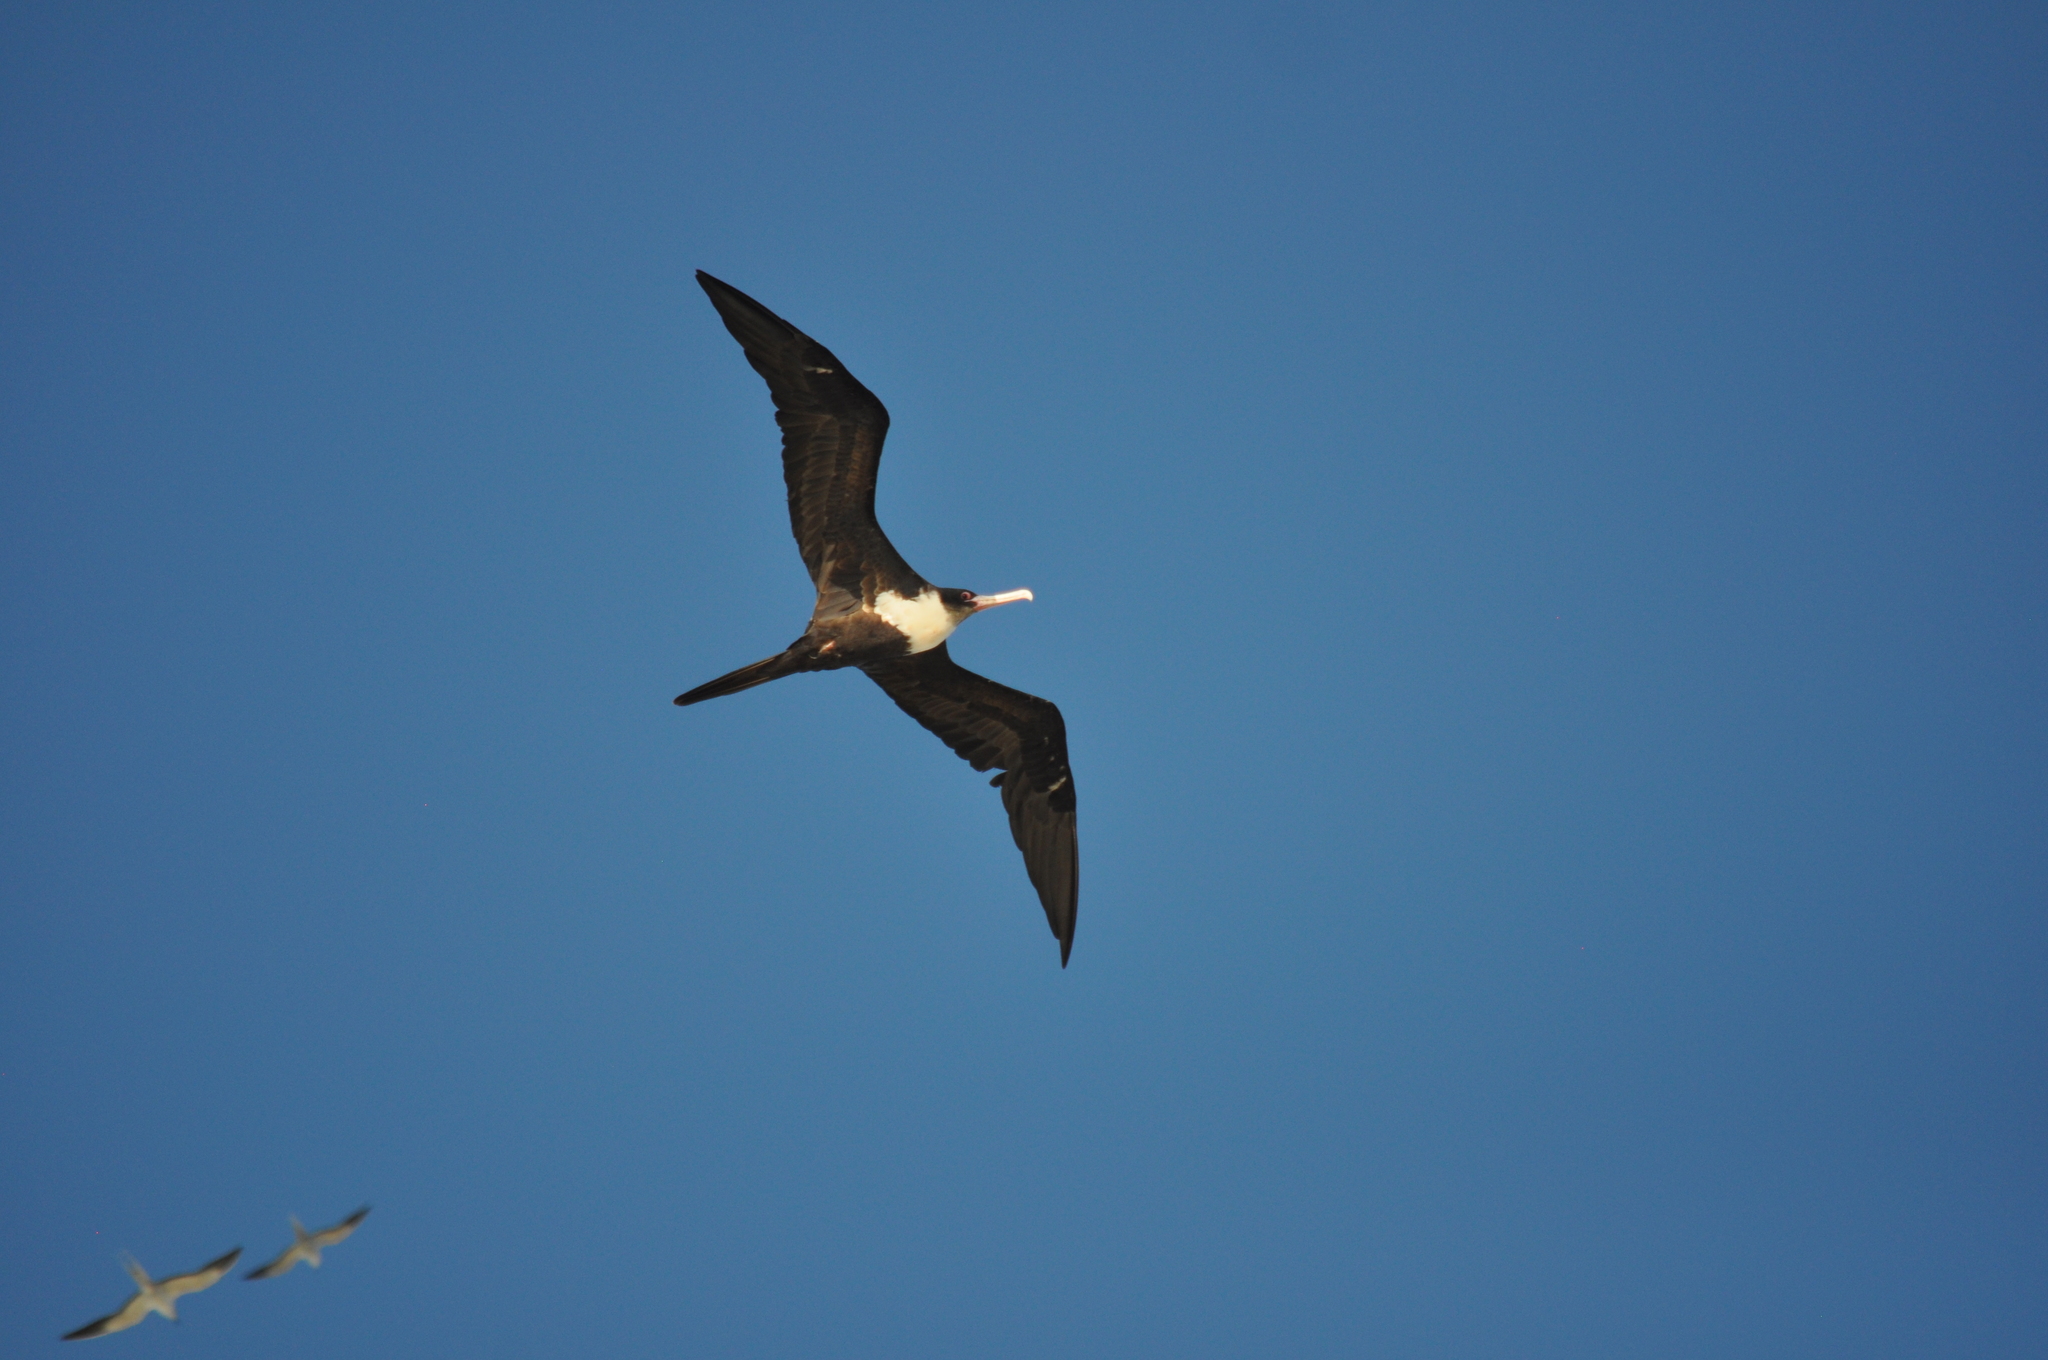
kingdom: Animalia
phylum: Chordata
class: Aves
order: Suliformes
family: Fregatidae
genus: Fregata
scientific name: Fregata minor
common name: Great frigatebird
